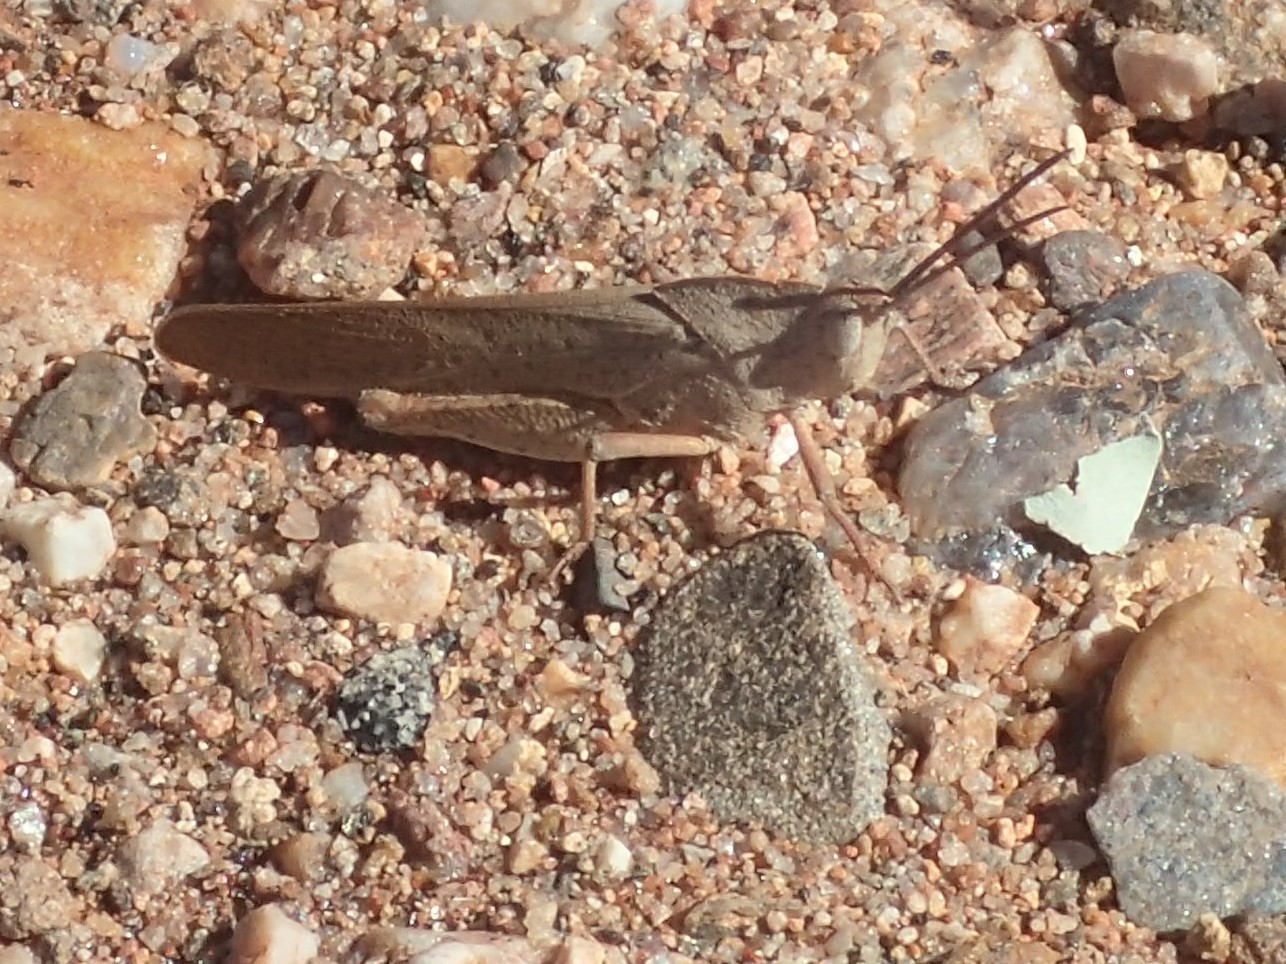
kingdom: Animalia
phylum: Arthropoda
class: Insecta
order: Orthoptera
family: Acrididae
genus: Goniaea
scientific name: Goniaea australasiae
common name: Gumleaf grasshopper
